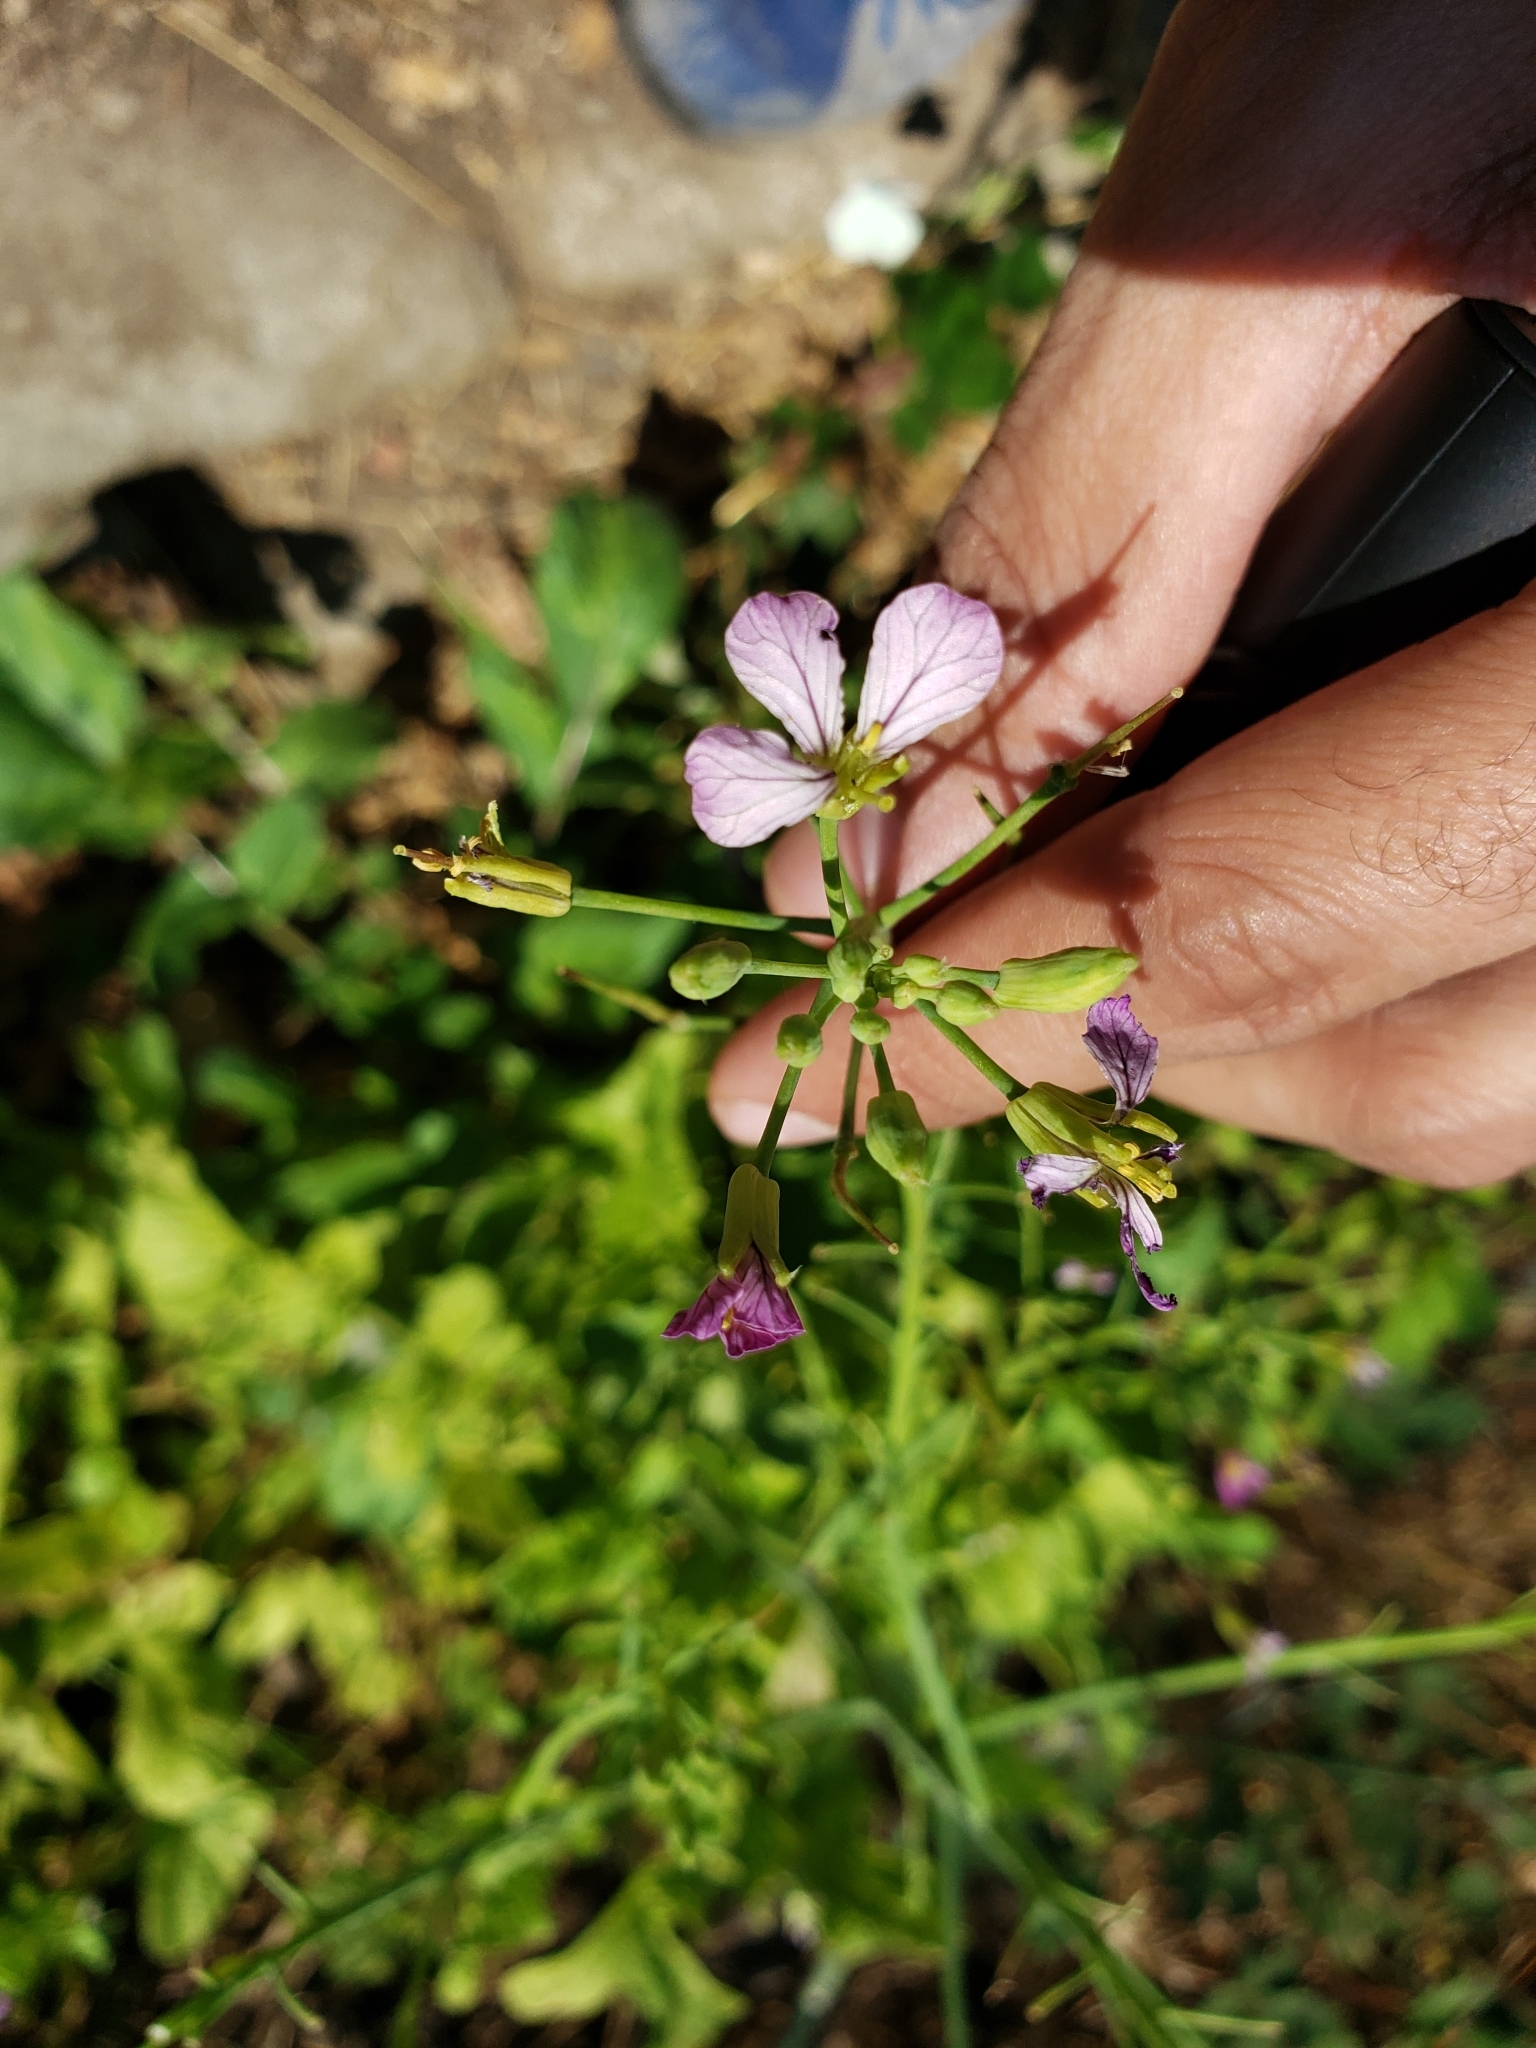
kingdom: Plantae
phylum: Tracheophyta
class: Magnoliopsida
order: Brassicales
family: Brassicaceae
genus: Raphanus
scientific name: Raphanus sativus
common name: Cultivated radish
